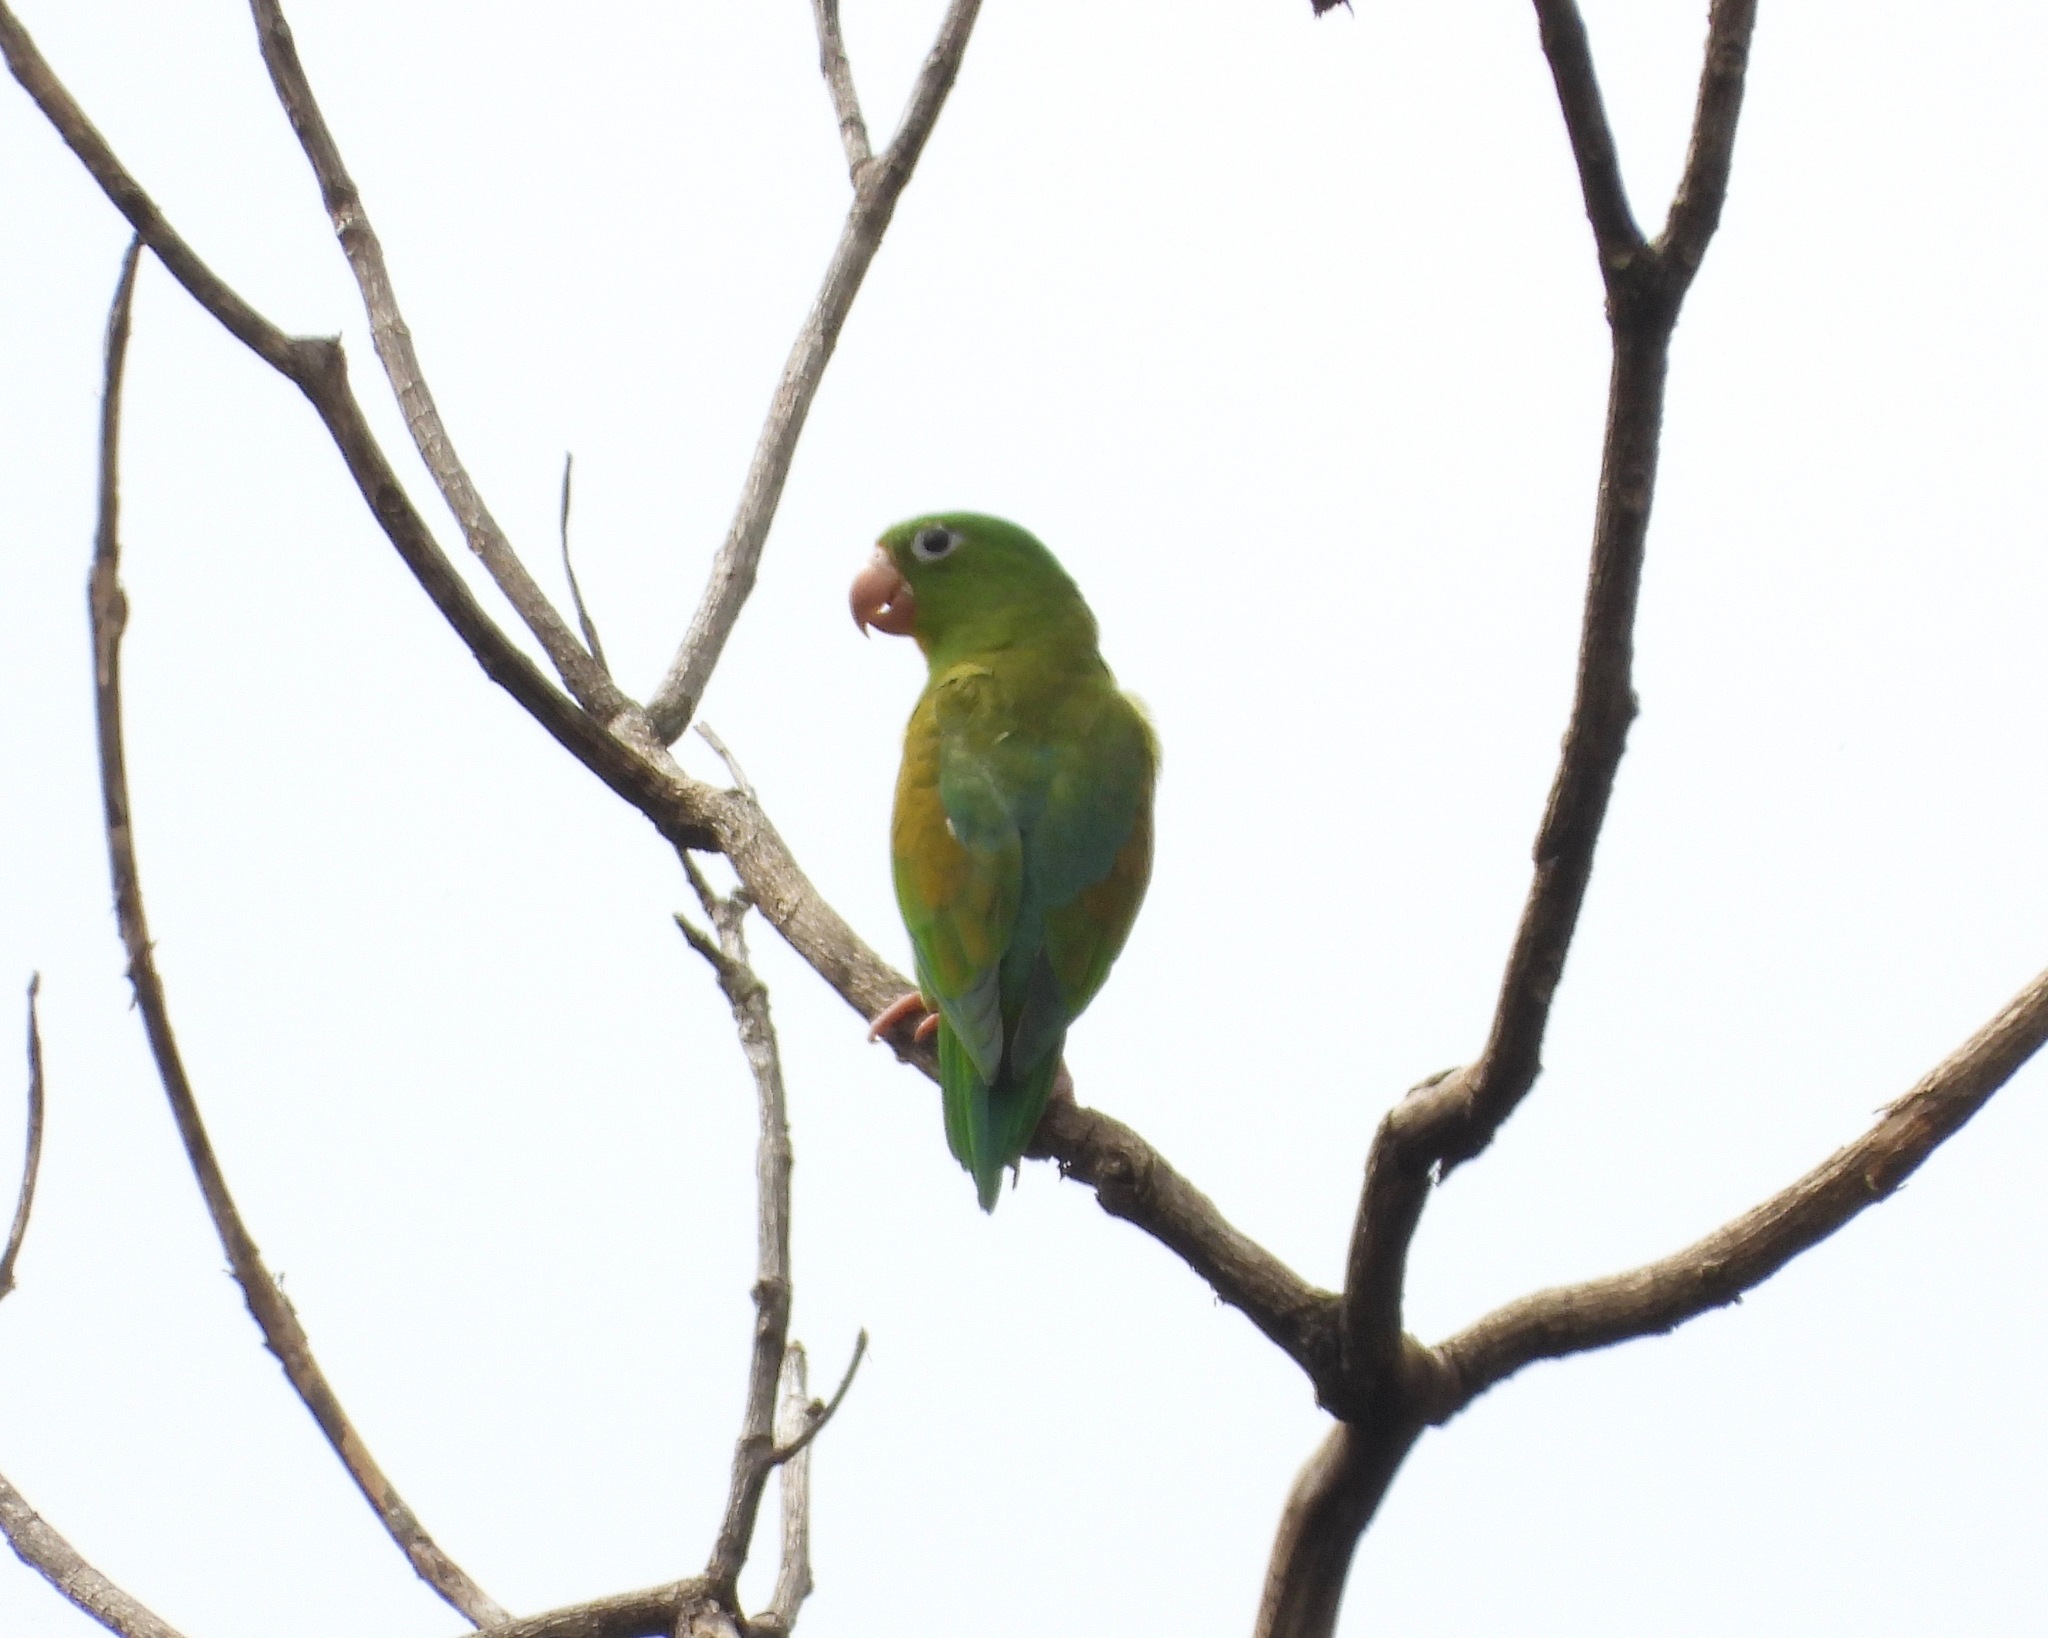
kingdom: Animalia
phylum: Chordata
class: Aves
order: Psittaciformes
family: Psittacidae
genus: Brotogeris
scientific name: Brotogeris jugularis
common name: Orange-chinned parakeet
